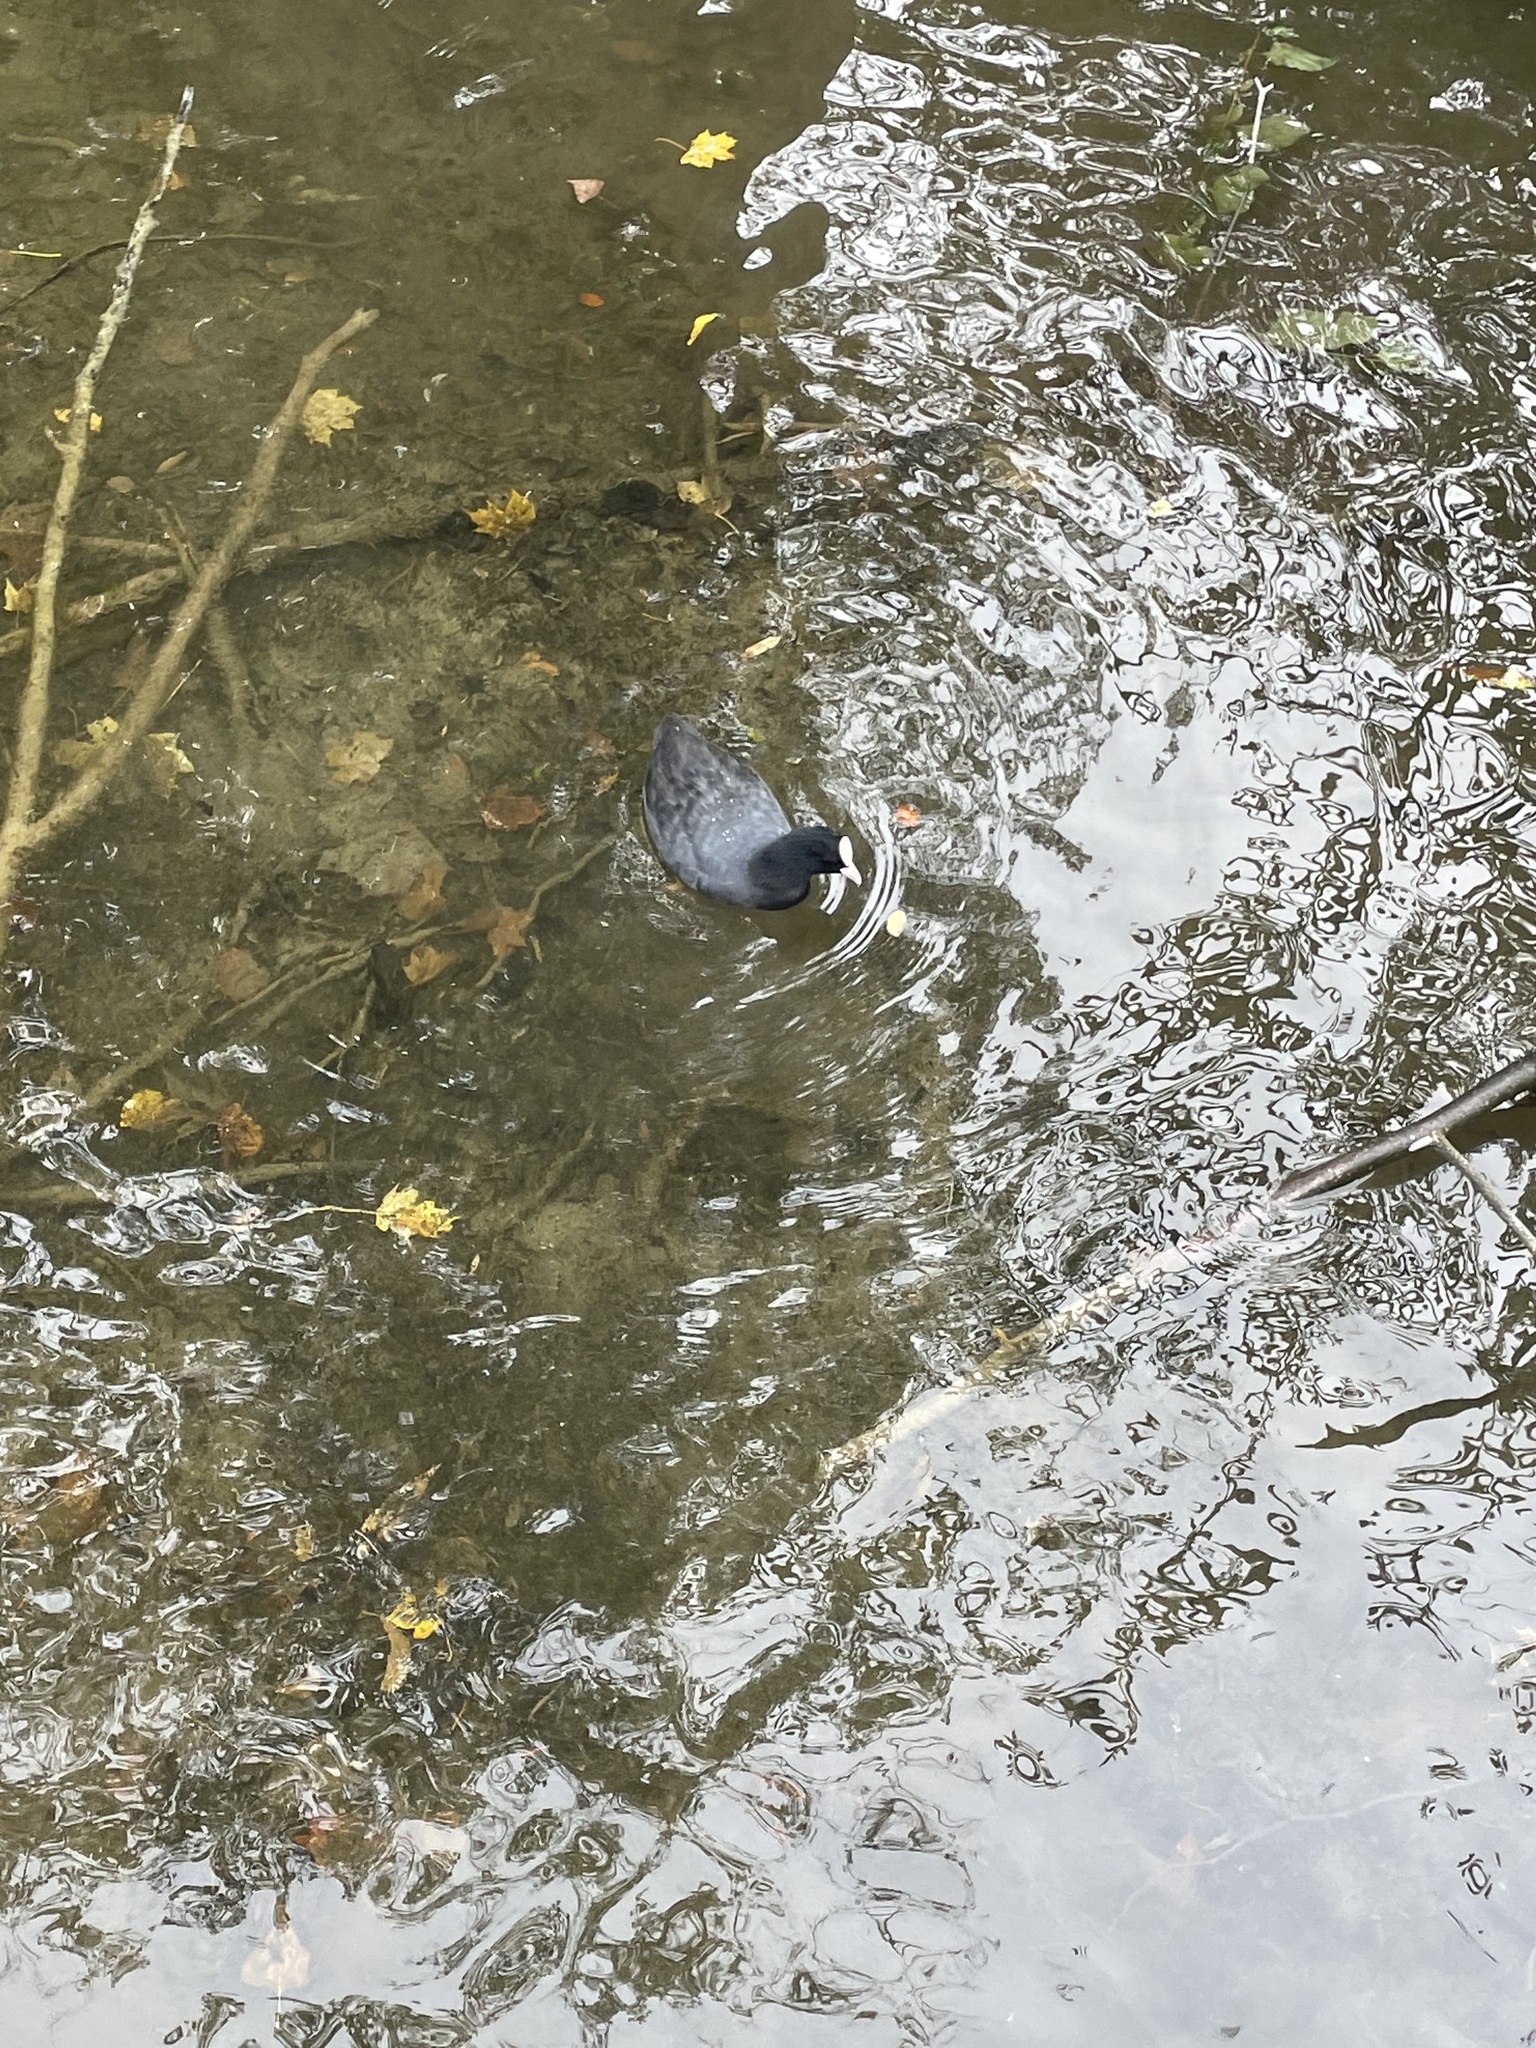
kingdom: Animalia
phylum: Chordata
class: Aves
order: Gruiformes
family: Rallidae
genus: Fulica
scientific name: Fulica atra
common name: Eurasian coot
